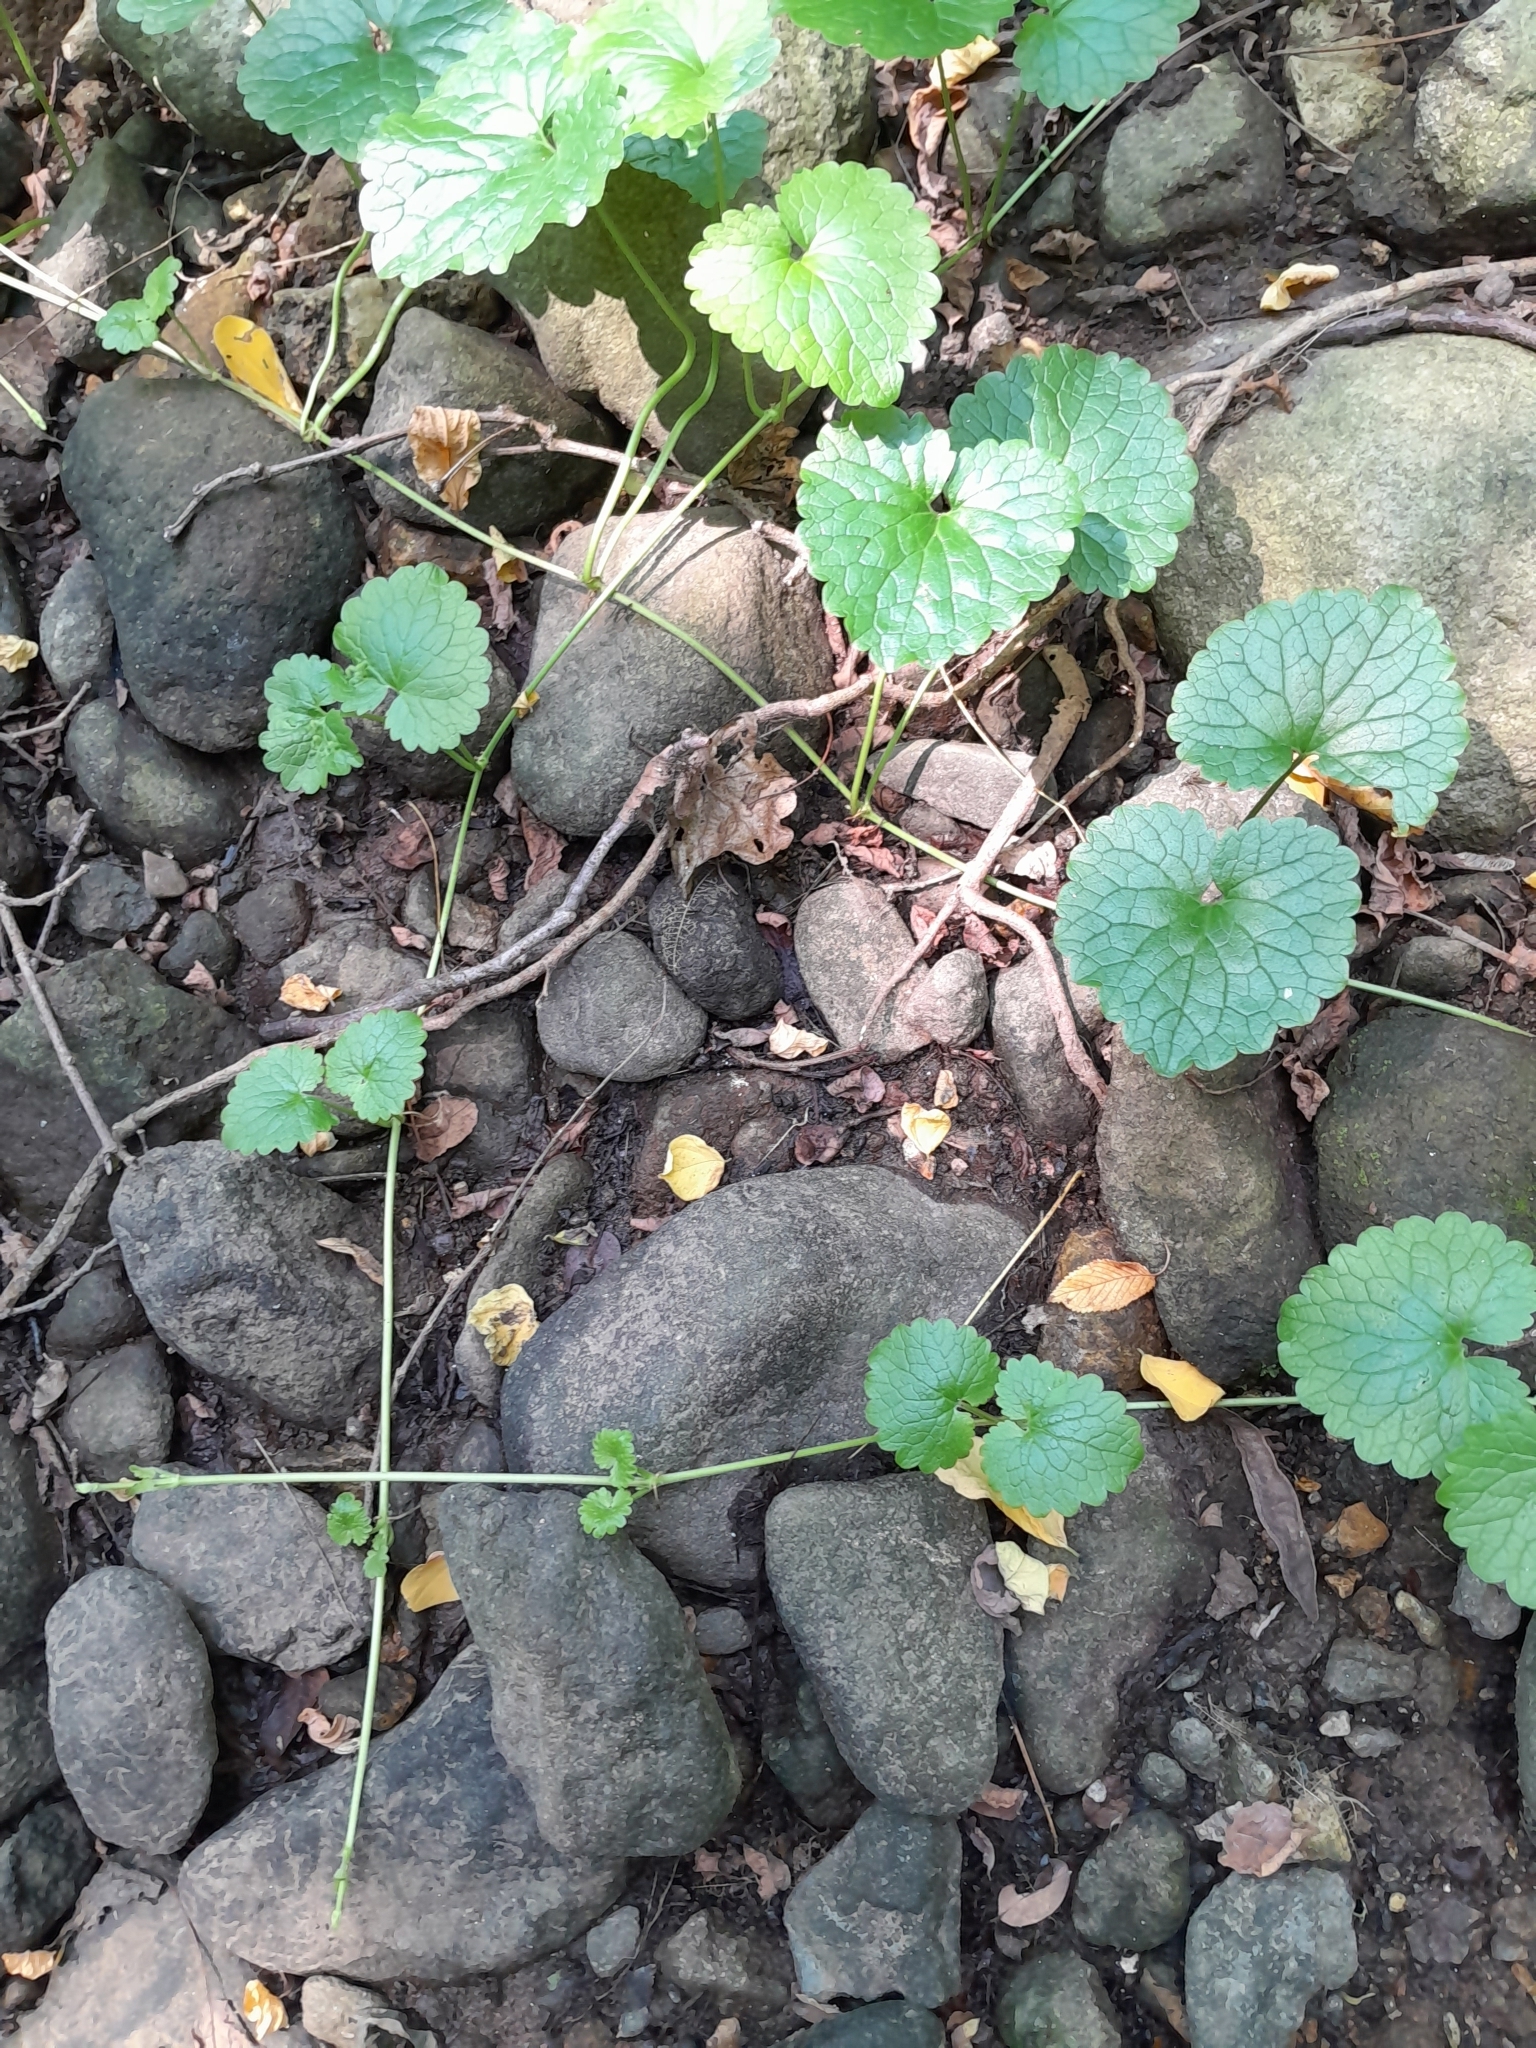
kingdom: Plantae
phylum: Tracheophyta
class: Magnoliopsida
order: Lamiales
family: Lamiaceae
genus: Glechoma
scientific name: Glechoma hederacea
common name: Ground ivy
